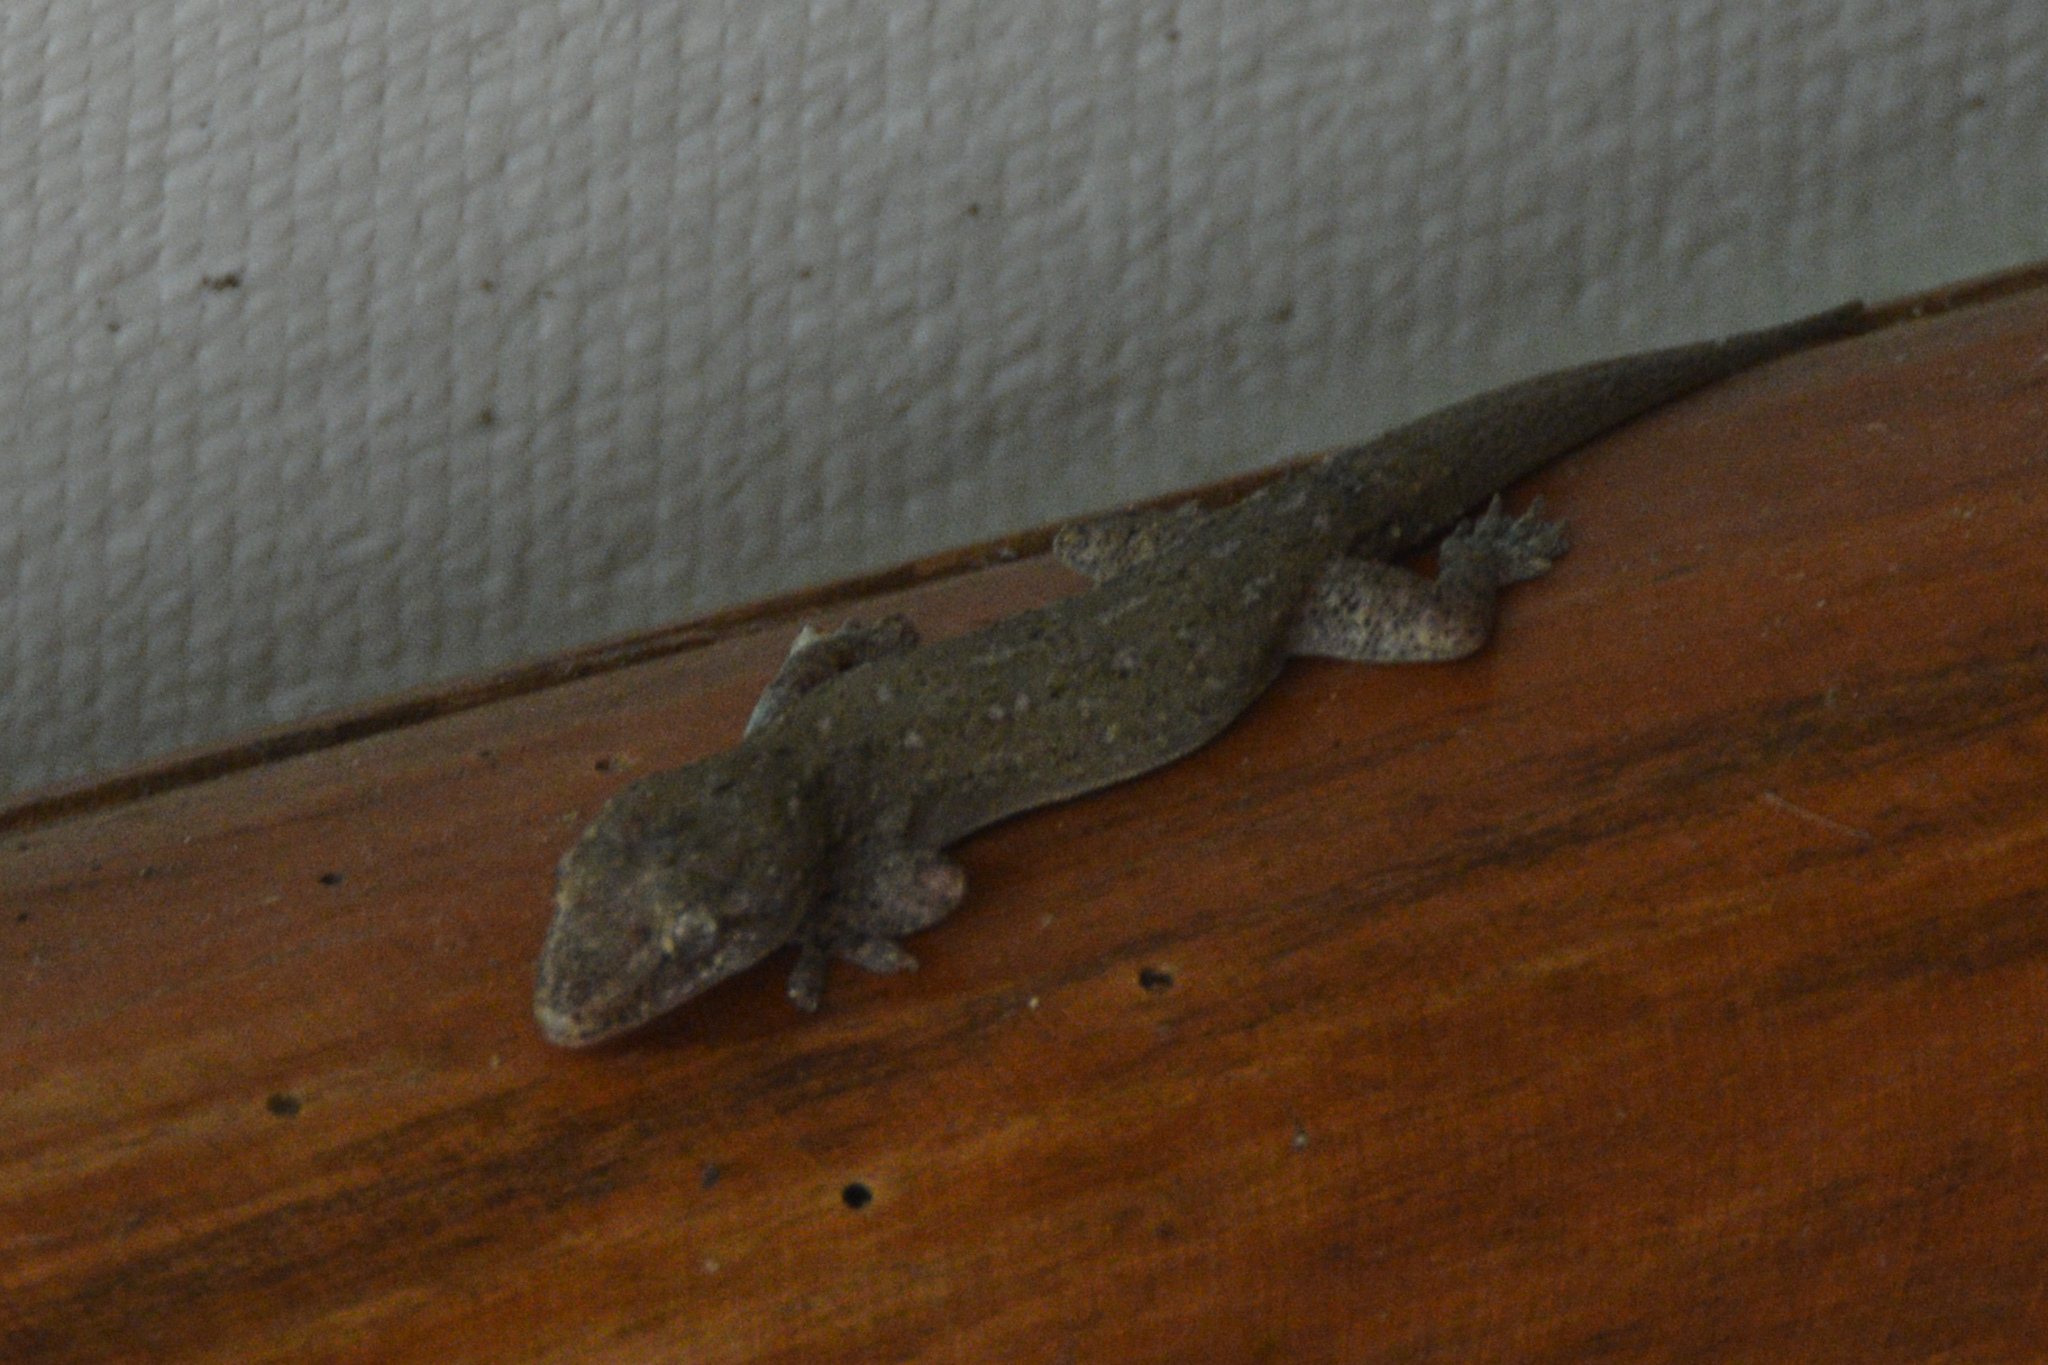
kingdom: Animalia
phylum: Chordata
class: Squamata
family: Gekkonidae
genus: Hemidactylus
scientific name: Hemidactylus frenatus
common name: Common house gecko
